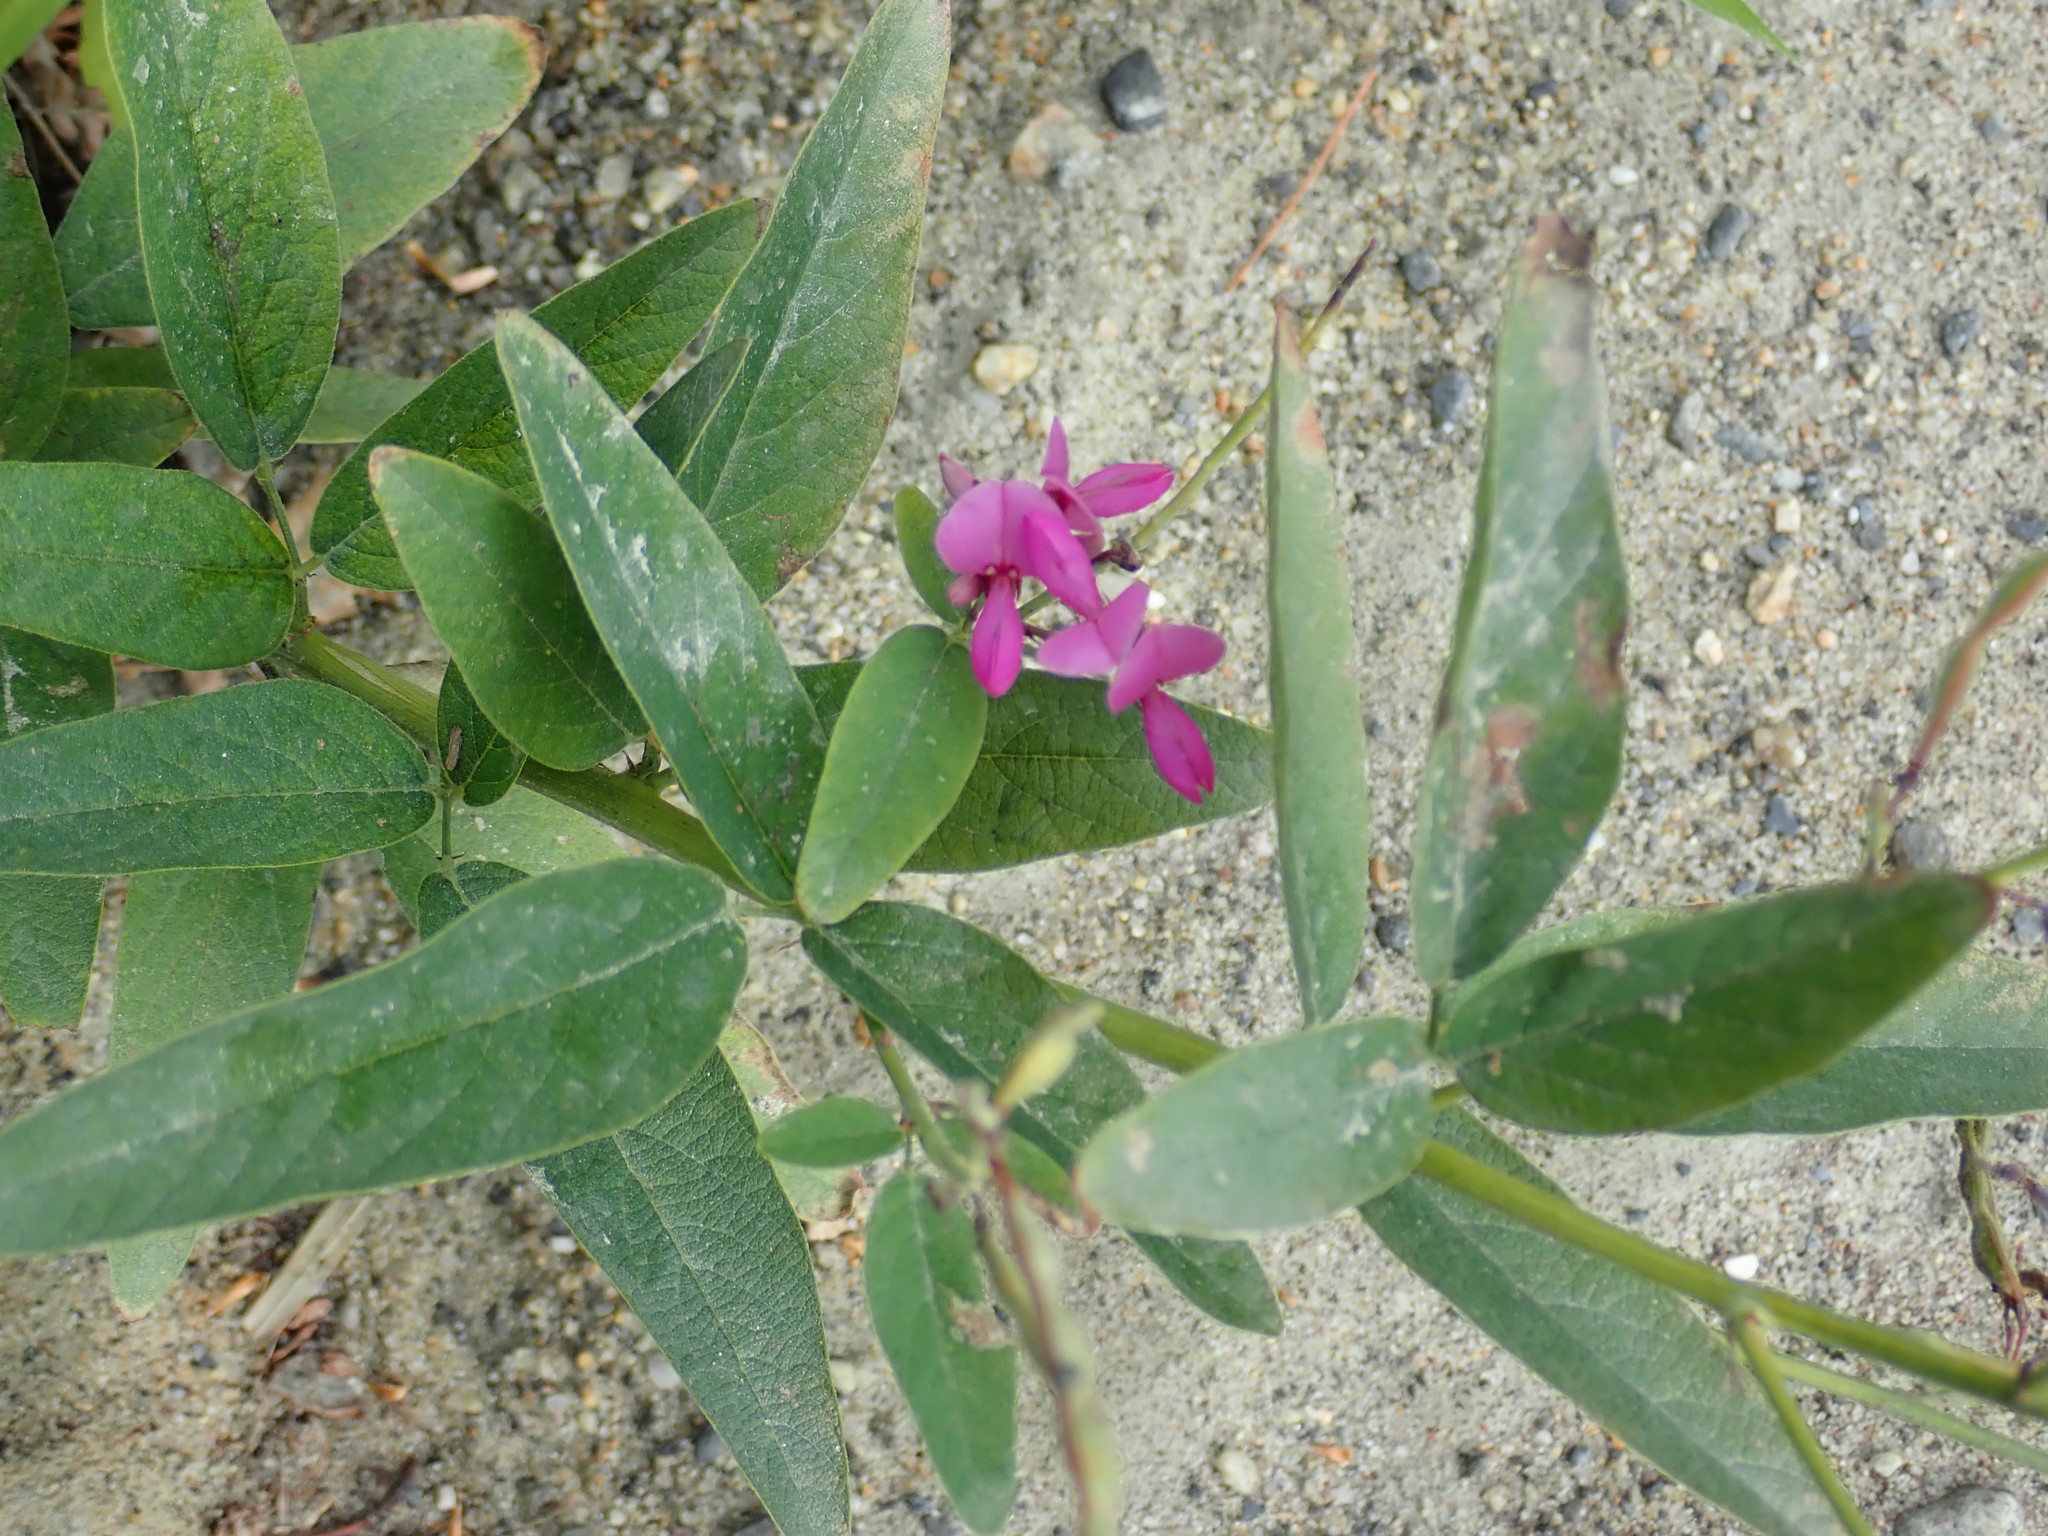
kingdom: Plantae
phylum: Tracheophyta
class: Magnoliopsida
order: Fabales
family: Fabaceae
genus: Desmodium
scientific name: Desmodium canadense
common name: Canada tick-trefoil
